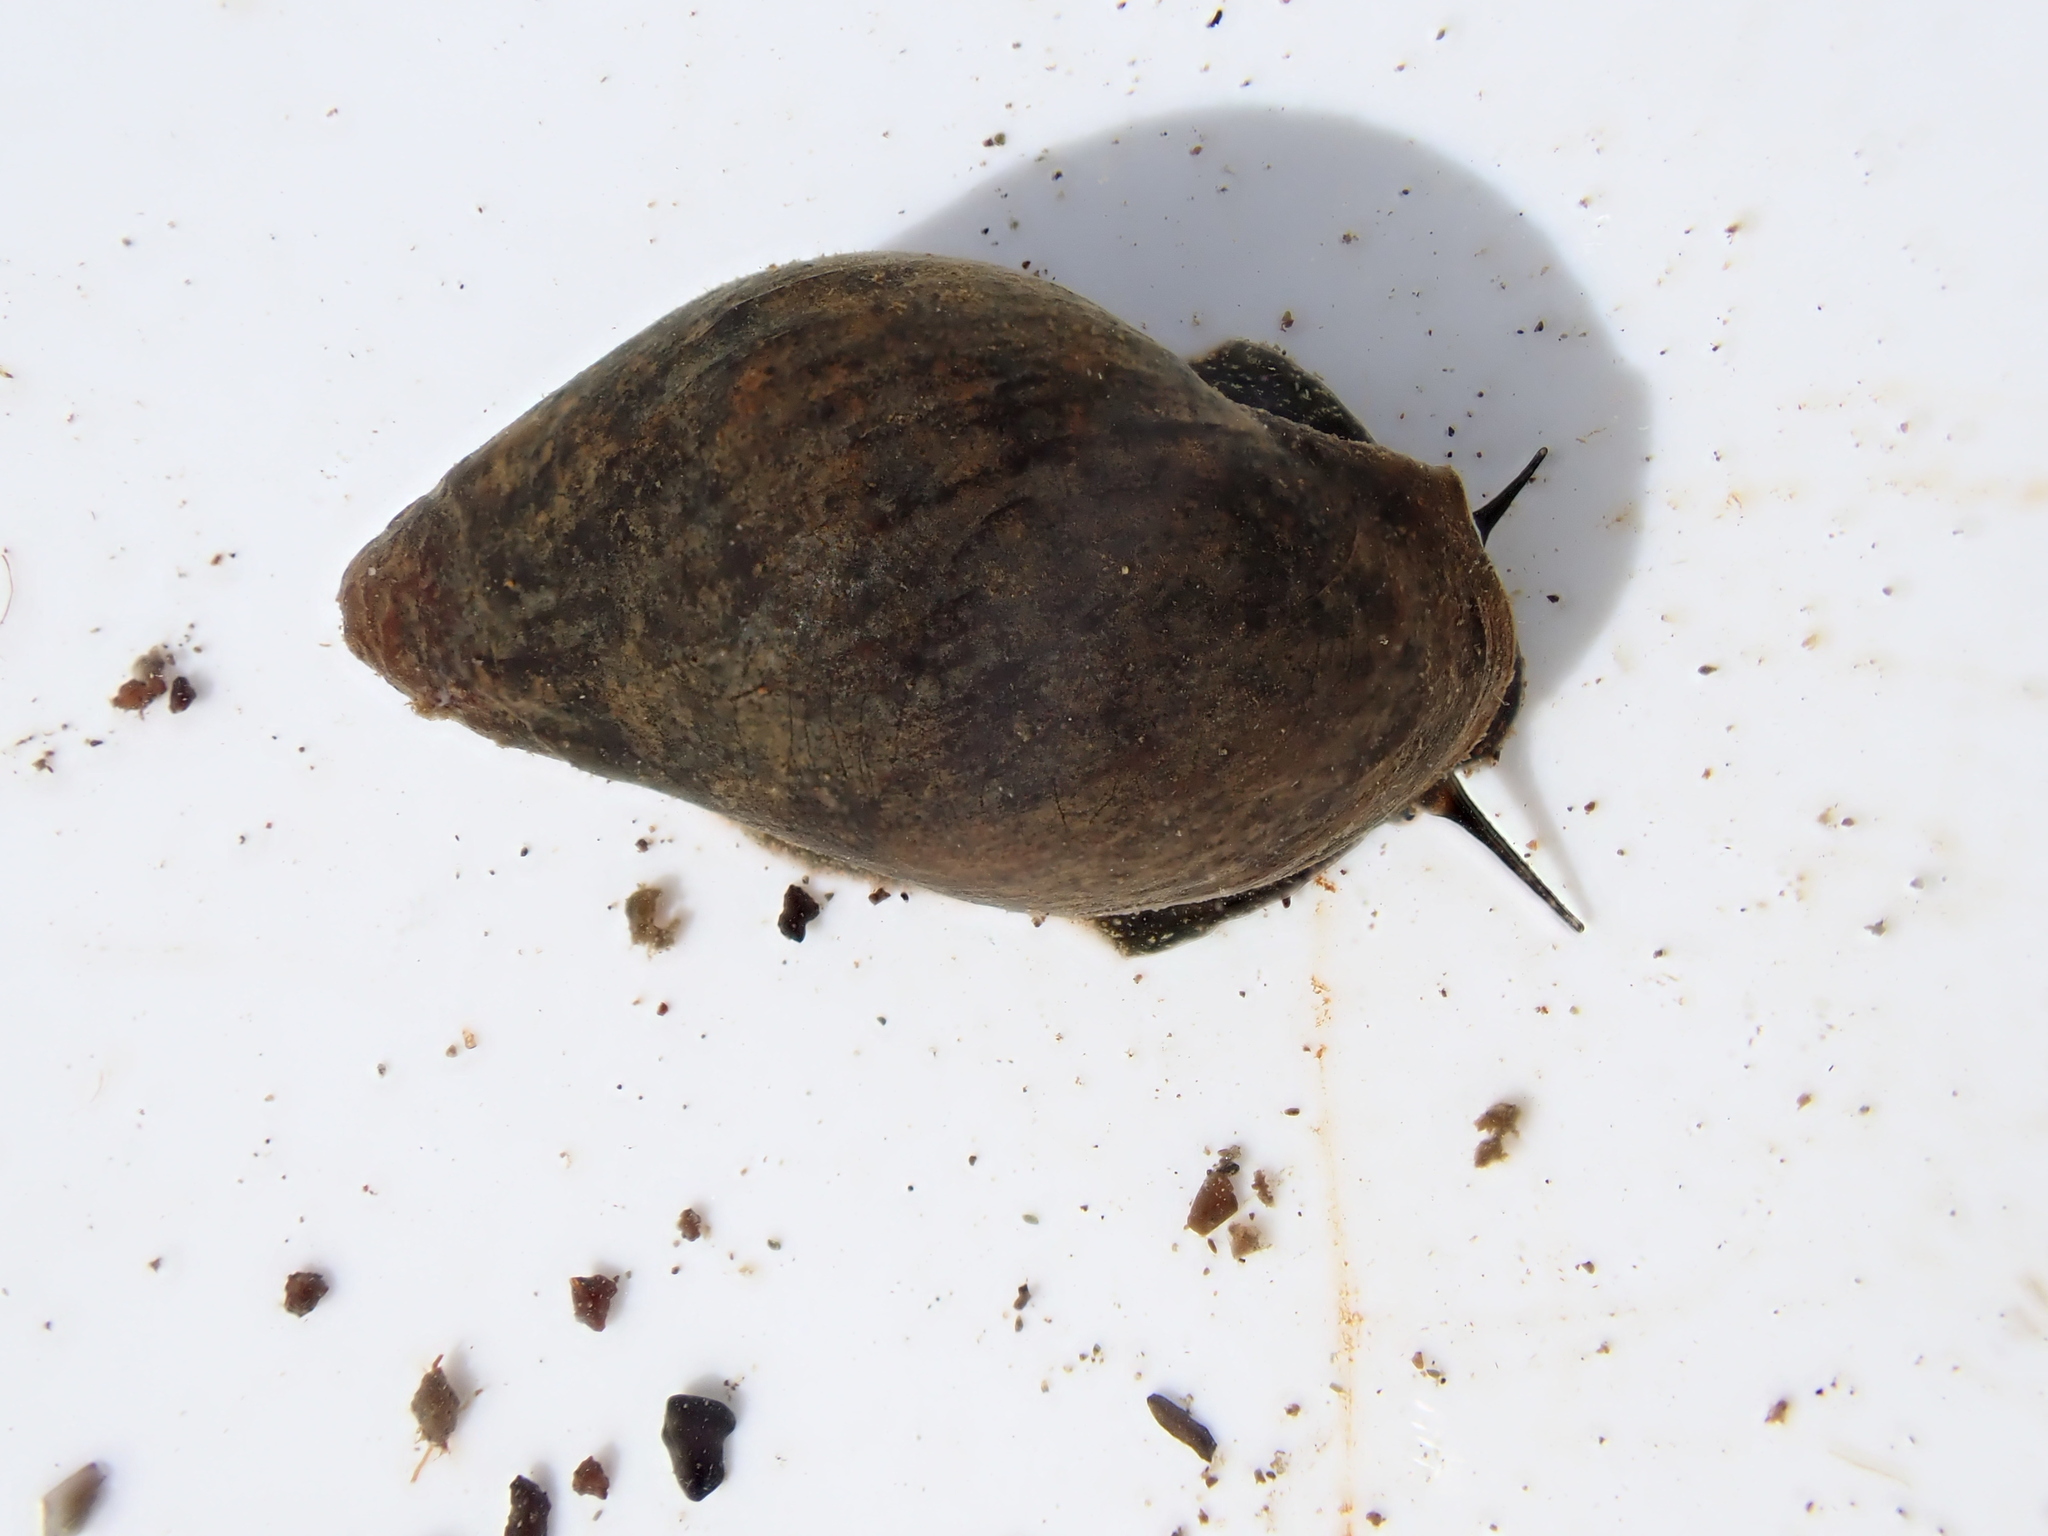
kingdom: Animalia
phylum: Mollusca
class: Gastropoda
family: Zemelanopsidae
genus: Zemelanopsis
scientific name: Zemelanopsis trifasciata
